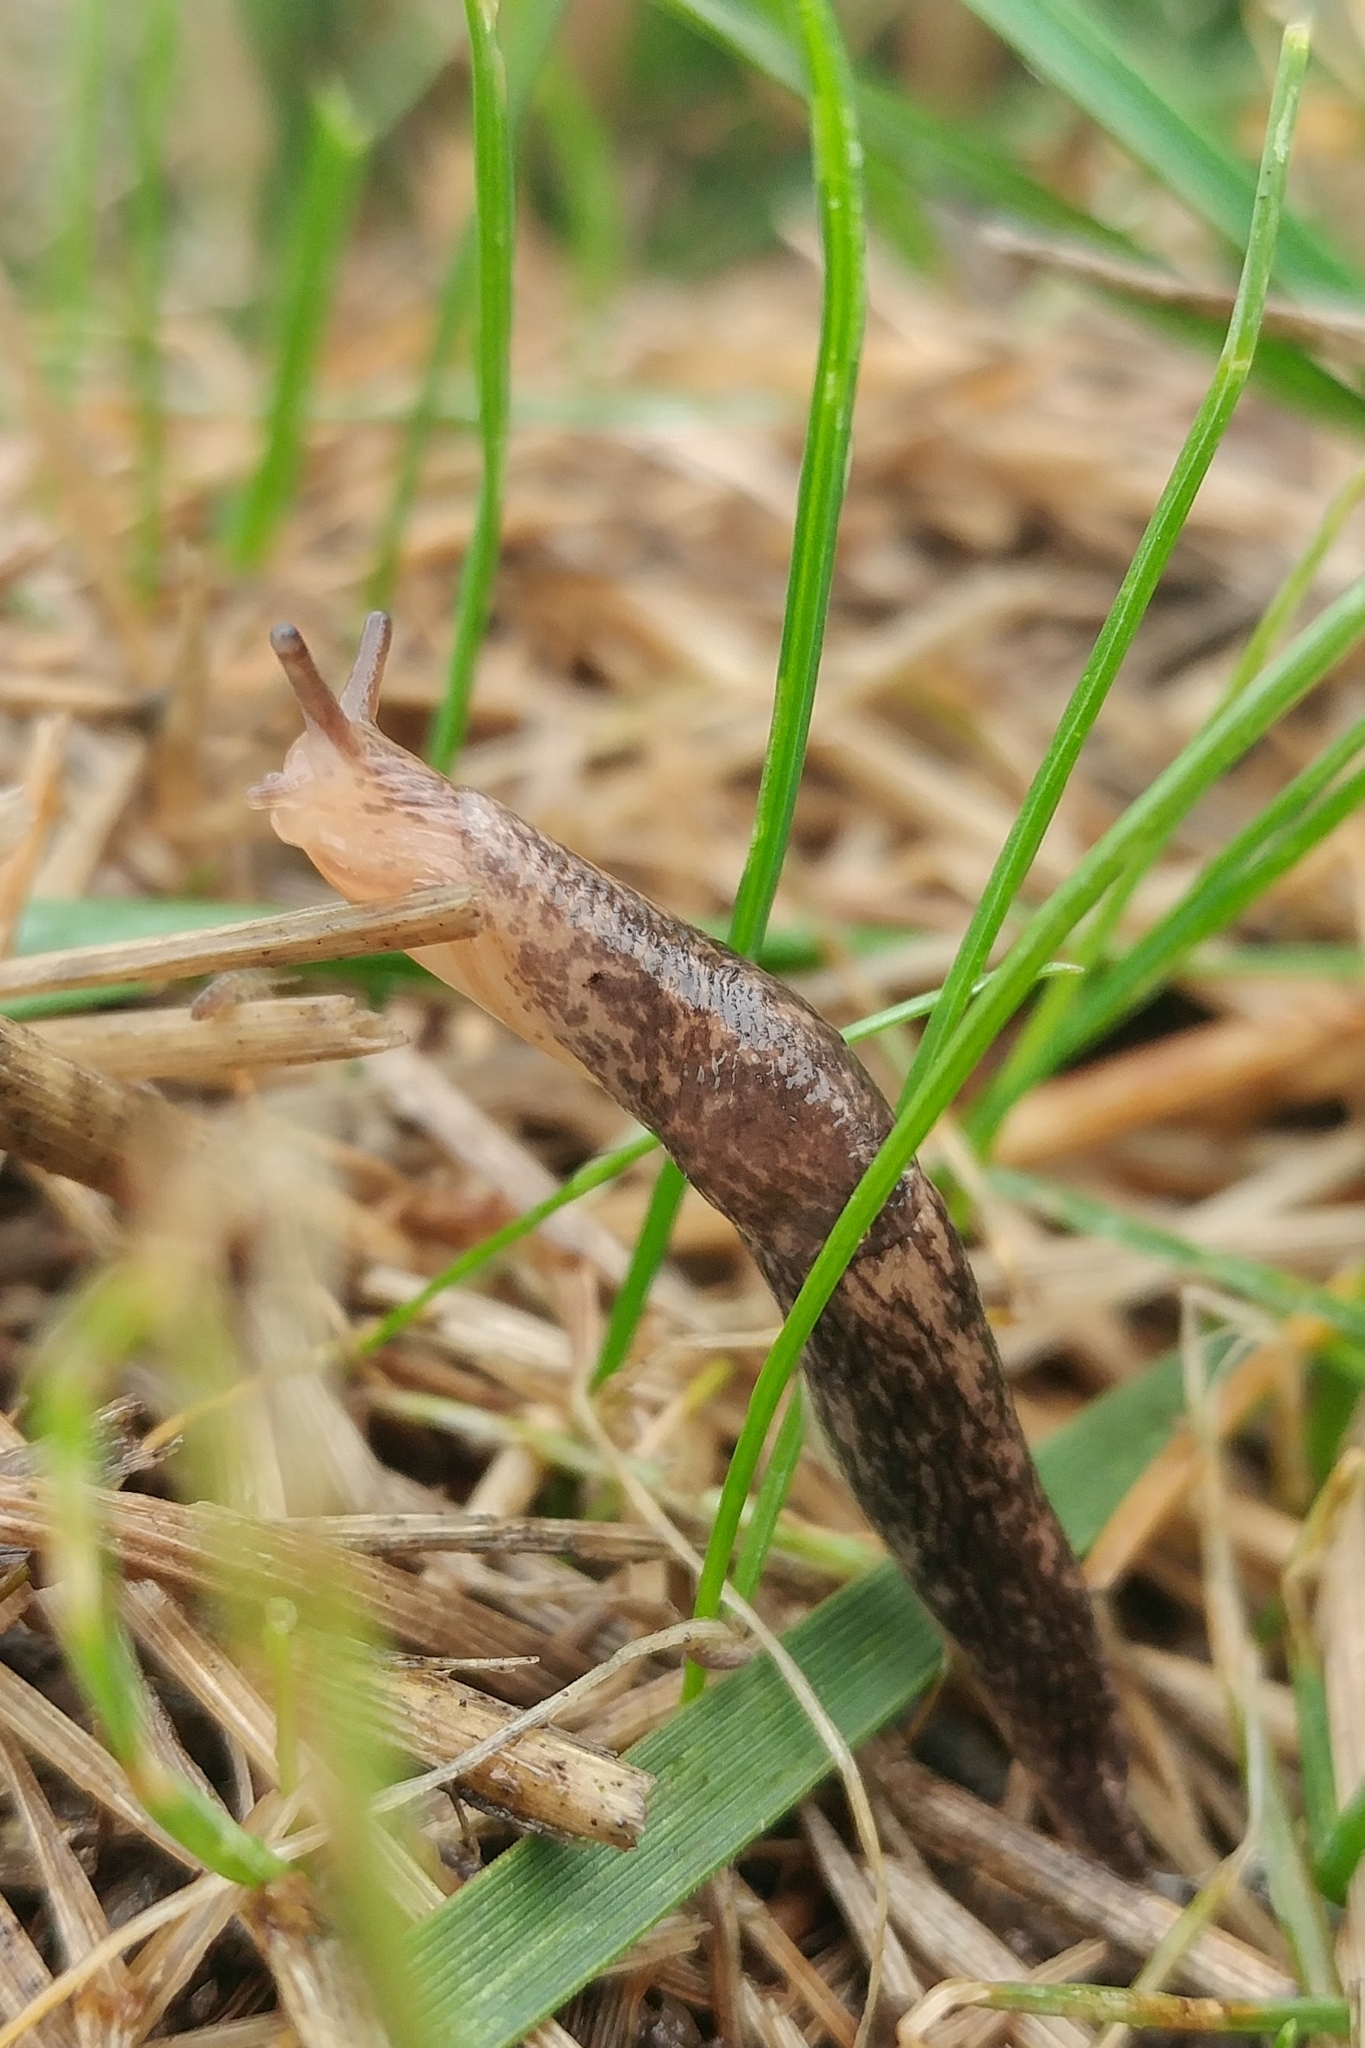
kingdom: Animalia
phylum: Mollusca
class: Gastropoda
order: Stylommatophora
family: Agriolimacidae
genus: Deroceras
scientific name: Deroceras reticulatum
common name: Gray field slug
